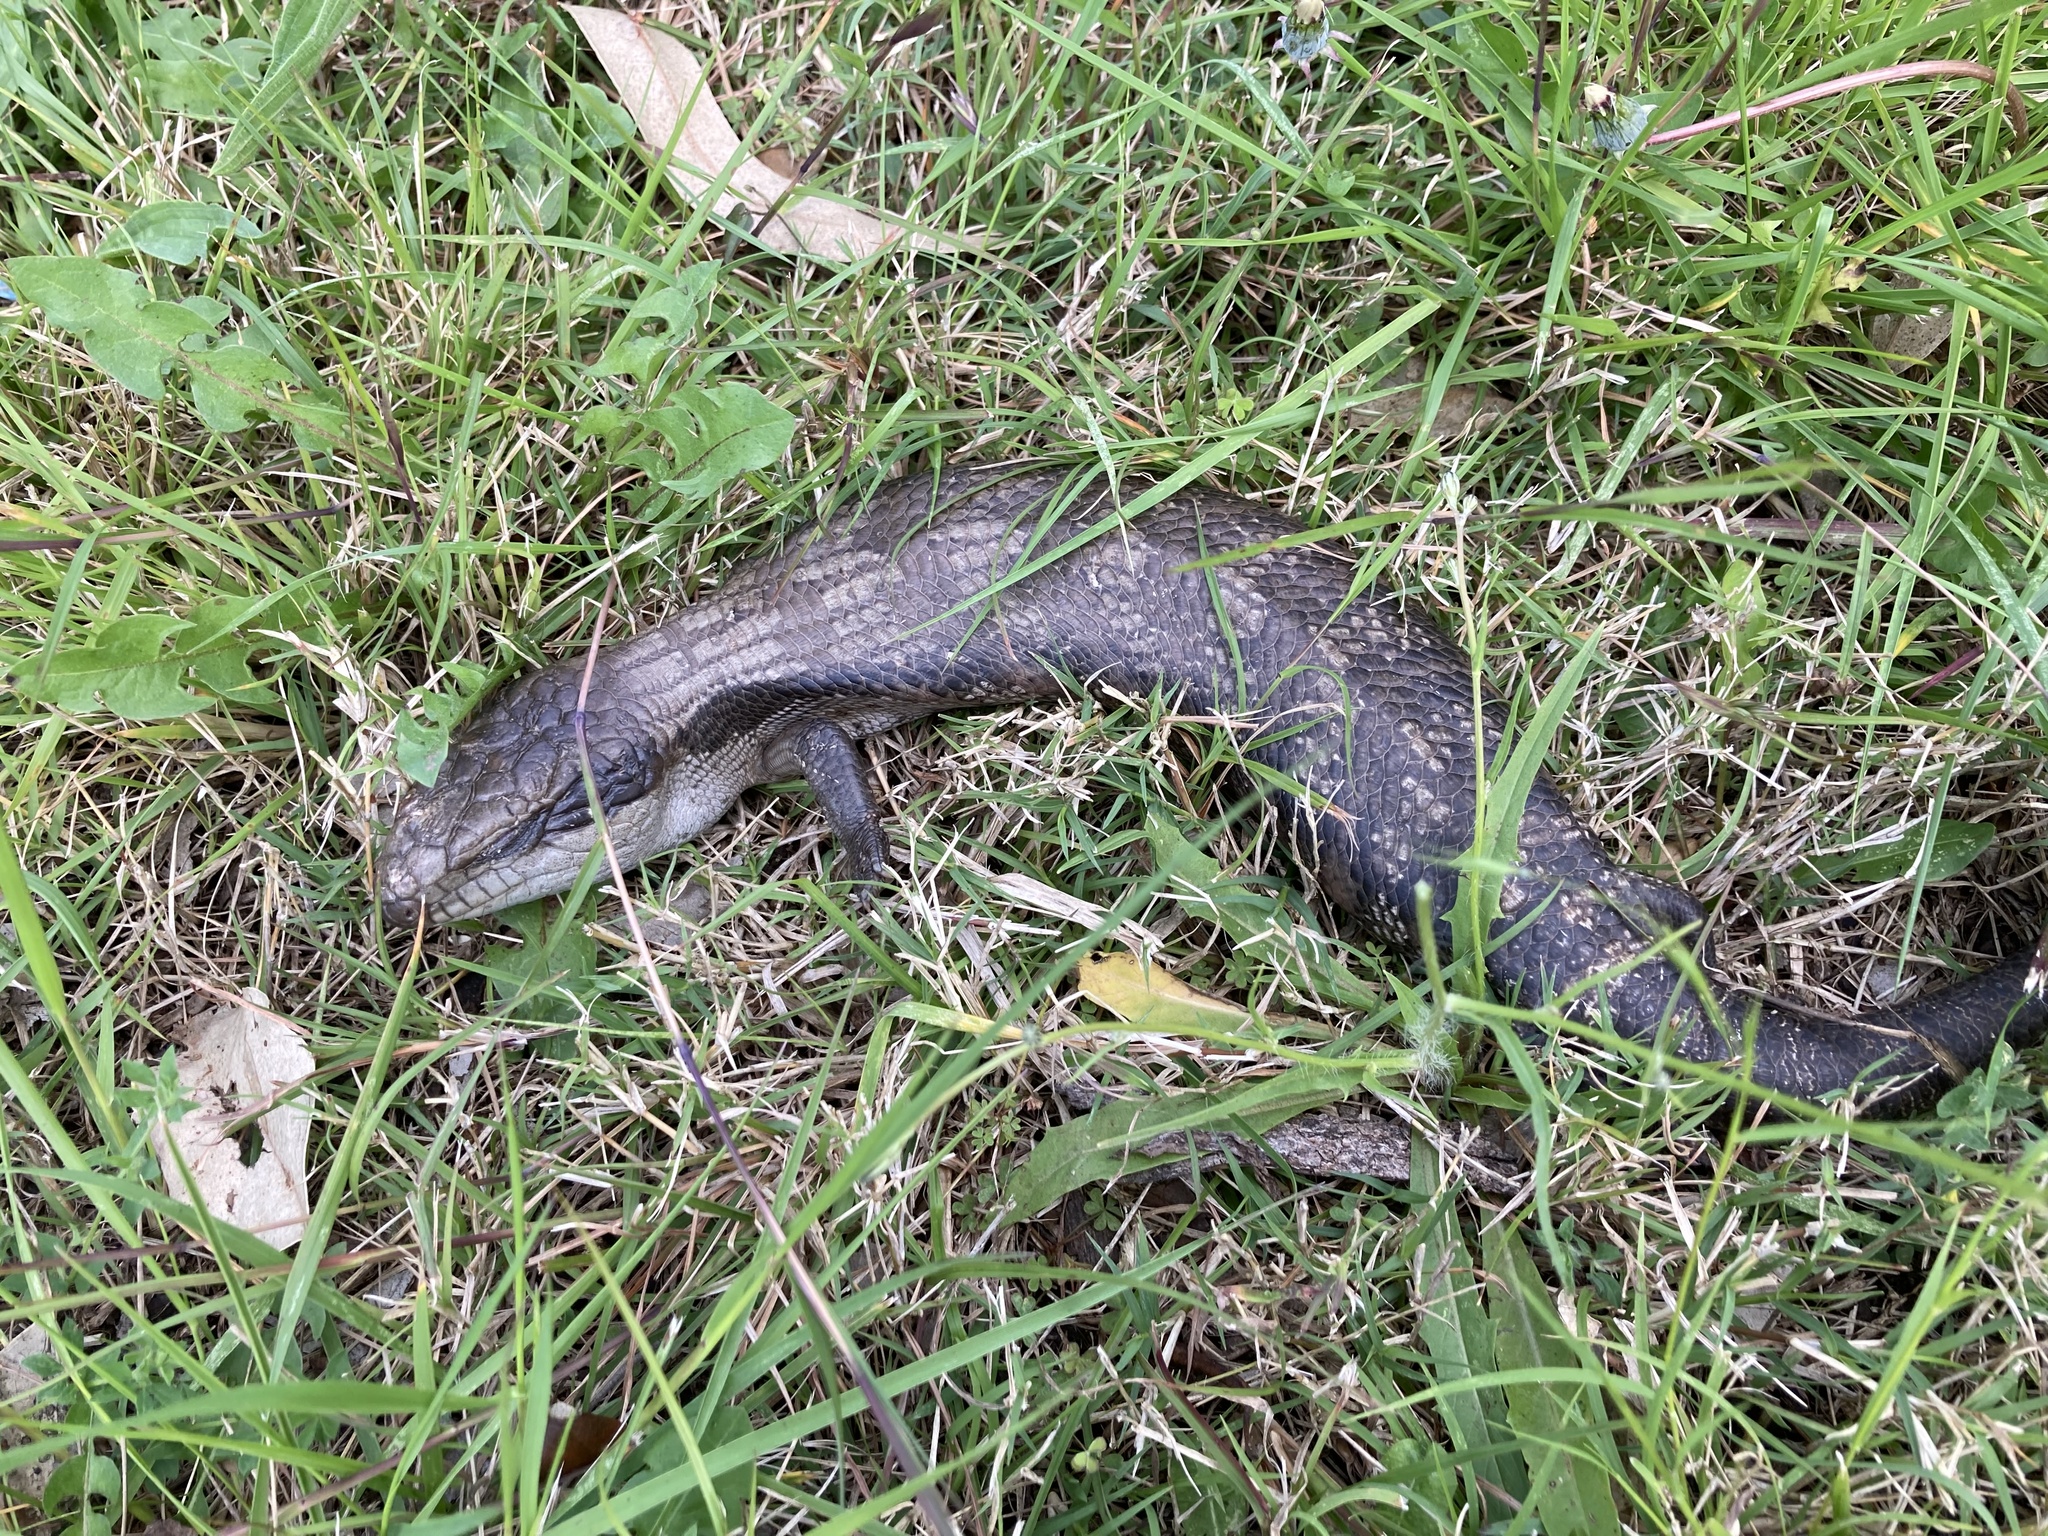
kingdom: Animalia
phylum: Chordata
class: Squamata
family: Scincidae
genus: Tiliqua
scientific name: Tiliqua scincoides
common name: Common bluetongue
